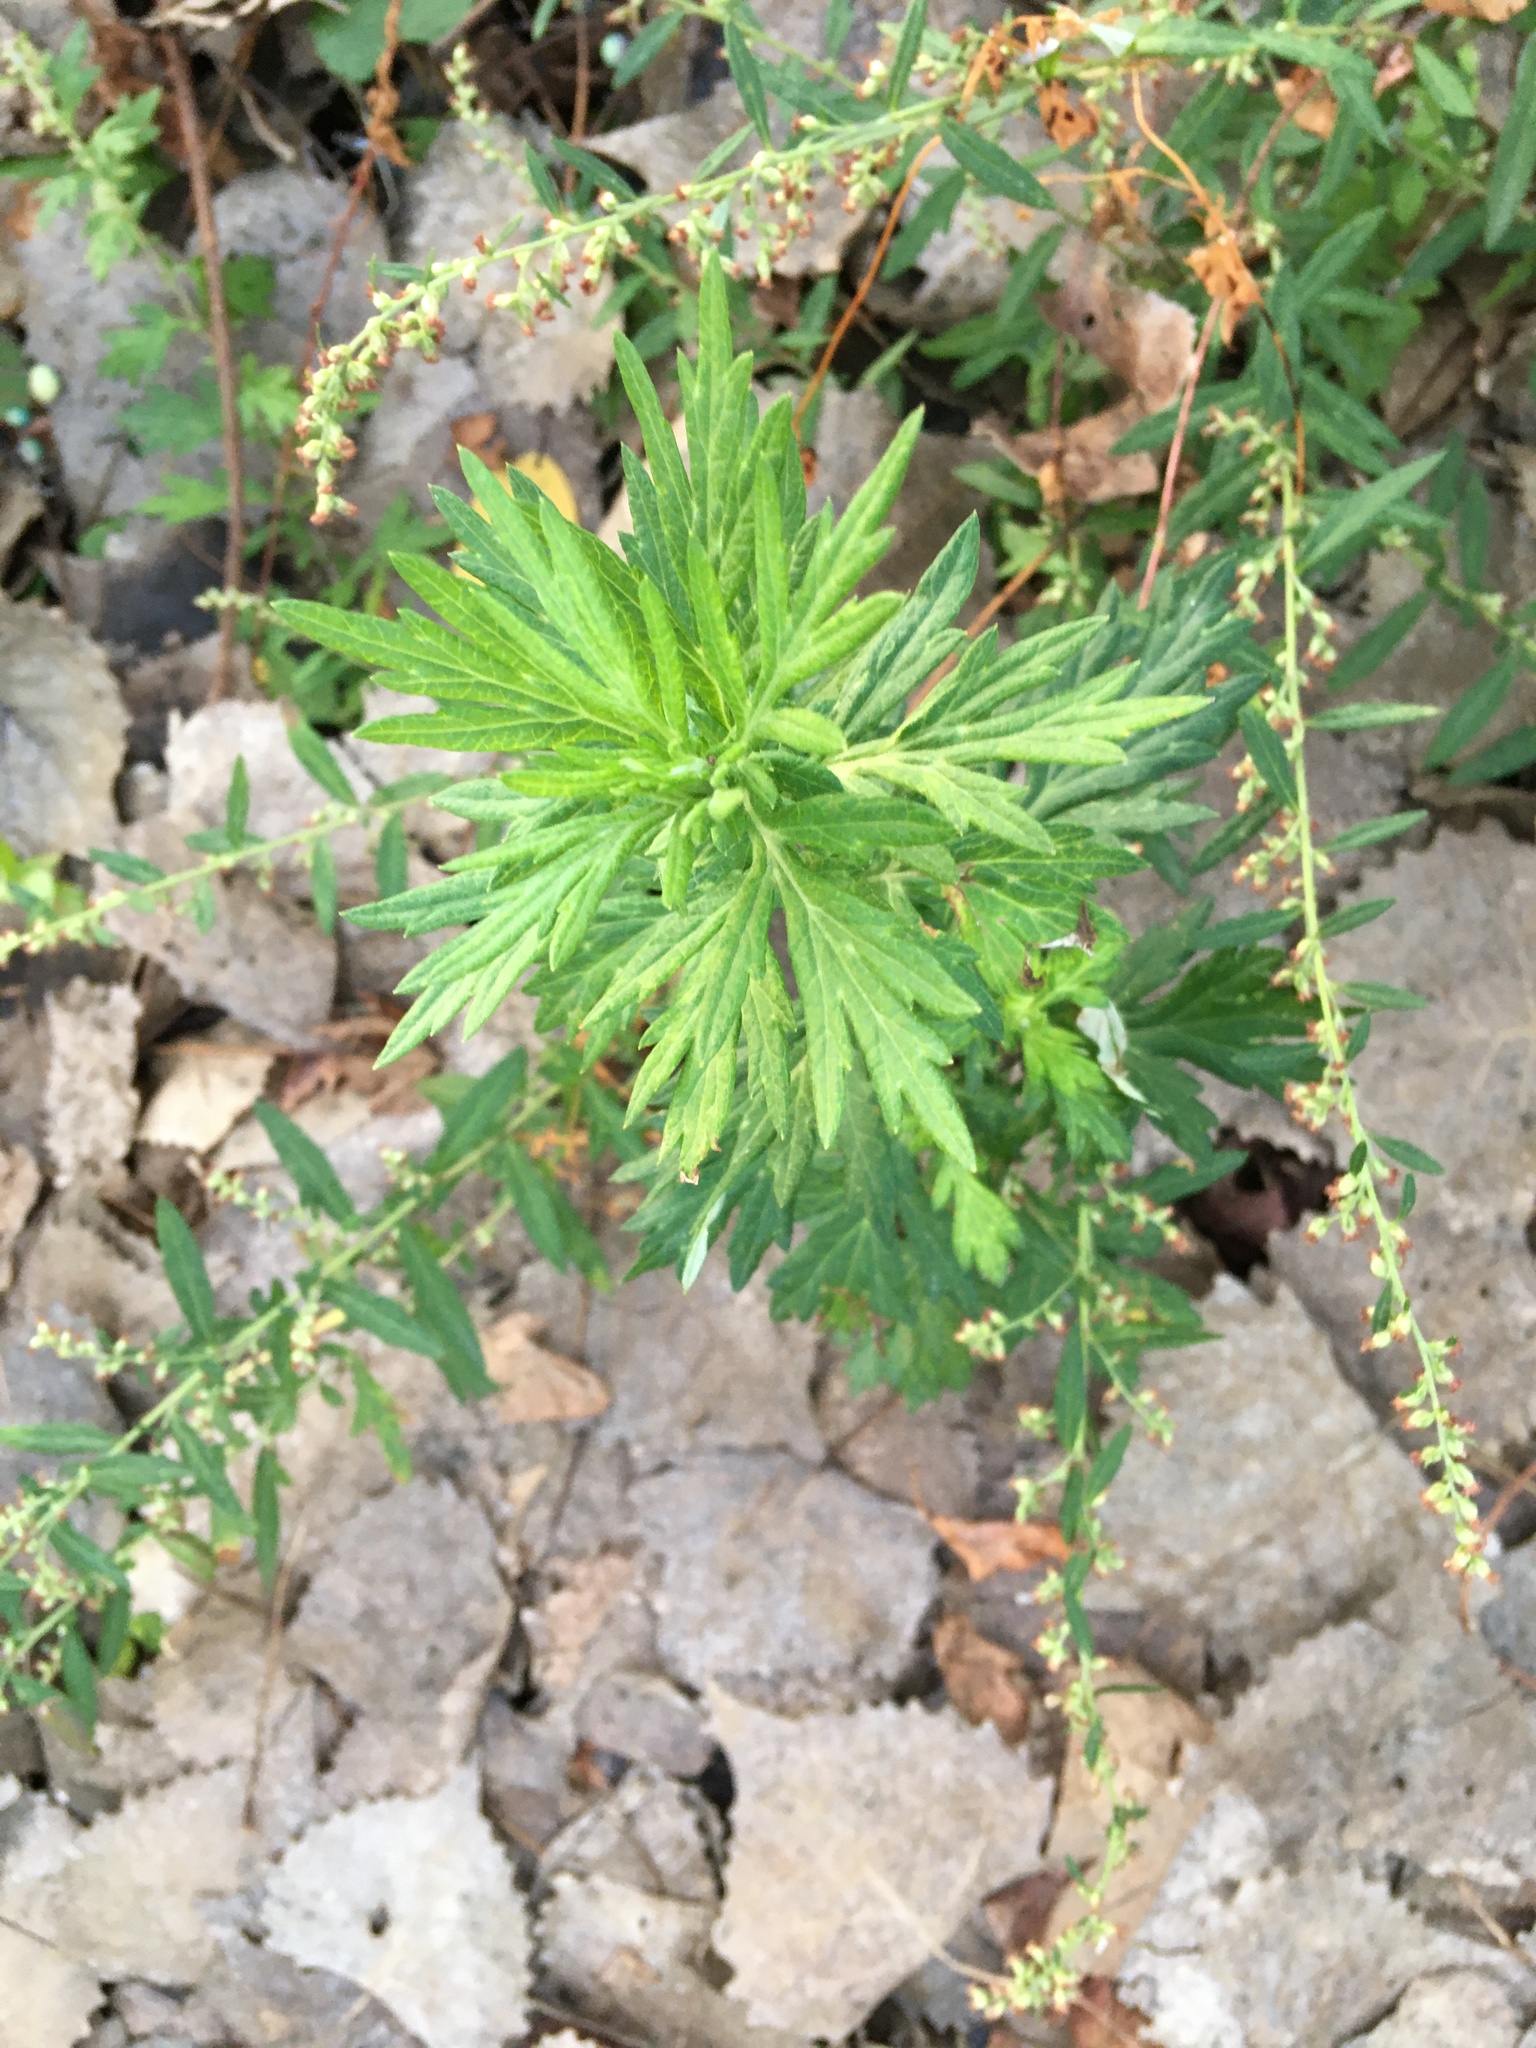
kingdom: Plantae
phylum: Tracheophyta
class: Magnoliopsida
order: Asterales
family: Asteraceae
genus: Artemisia
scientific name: Artemisia vulgaris
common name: Mugwort
